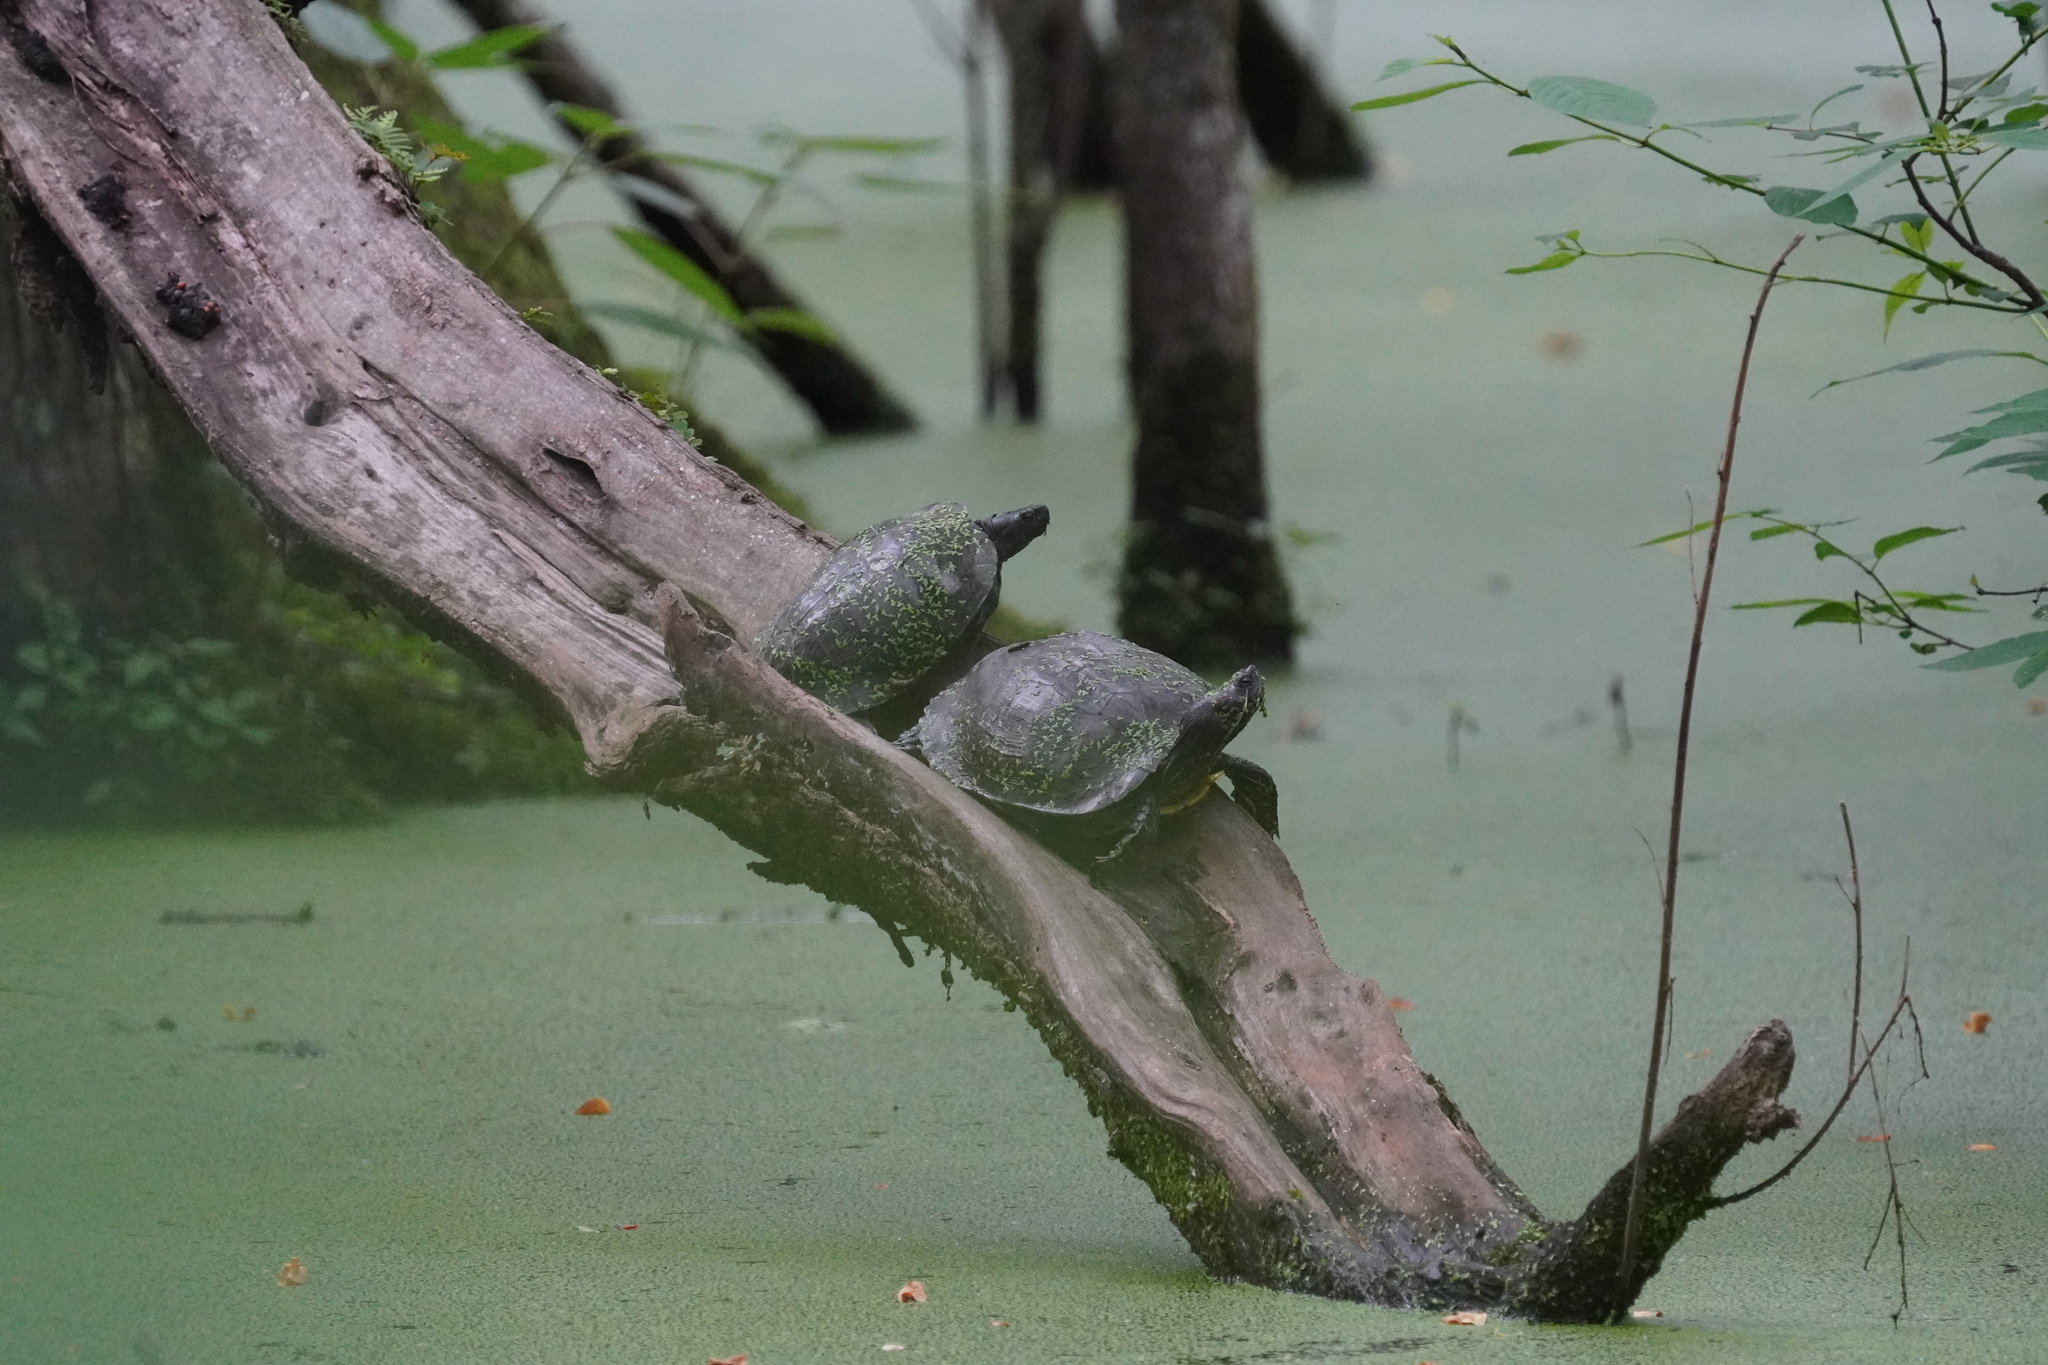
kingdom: Animalia
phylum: Chordata
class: Testudines
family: Emydidae
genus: Trachemys
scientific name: Trachemys scripta
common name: Slider
